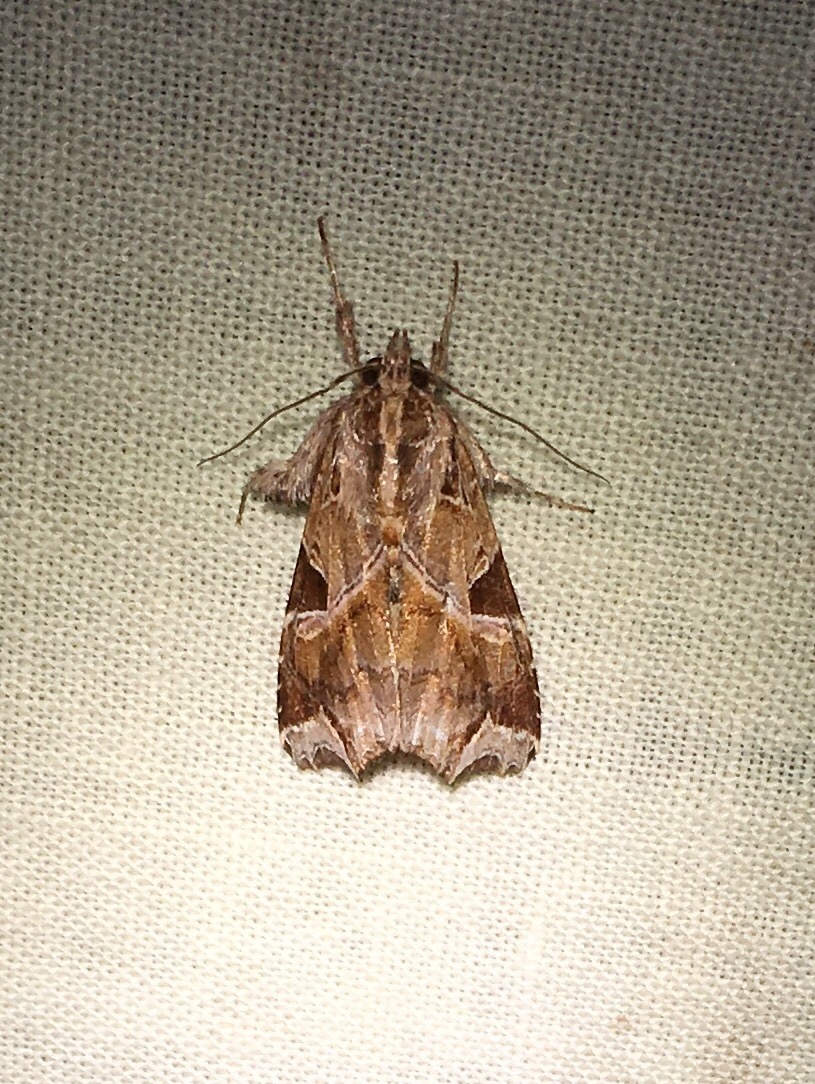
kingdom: Animalia
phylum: Arthropoda
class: Insecta
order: Lepidoptera
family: Noctuidae
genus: Callopistria
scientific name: Callopistria floridensis
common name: Florida fern moth
